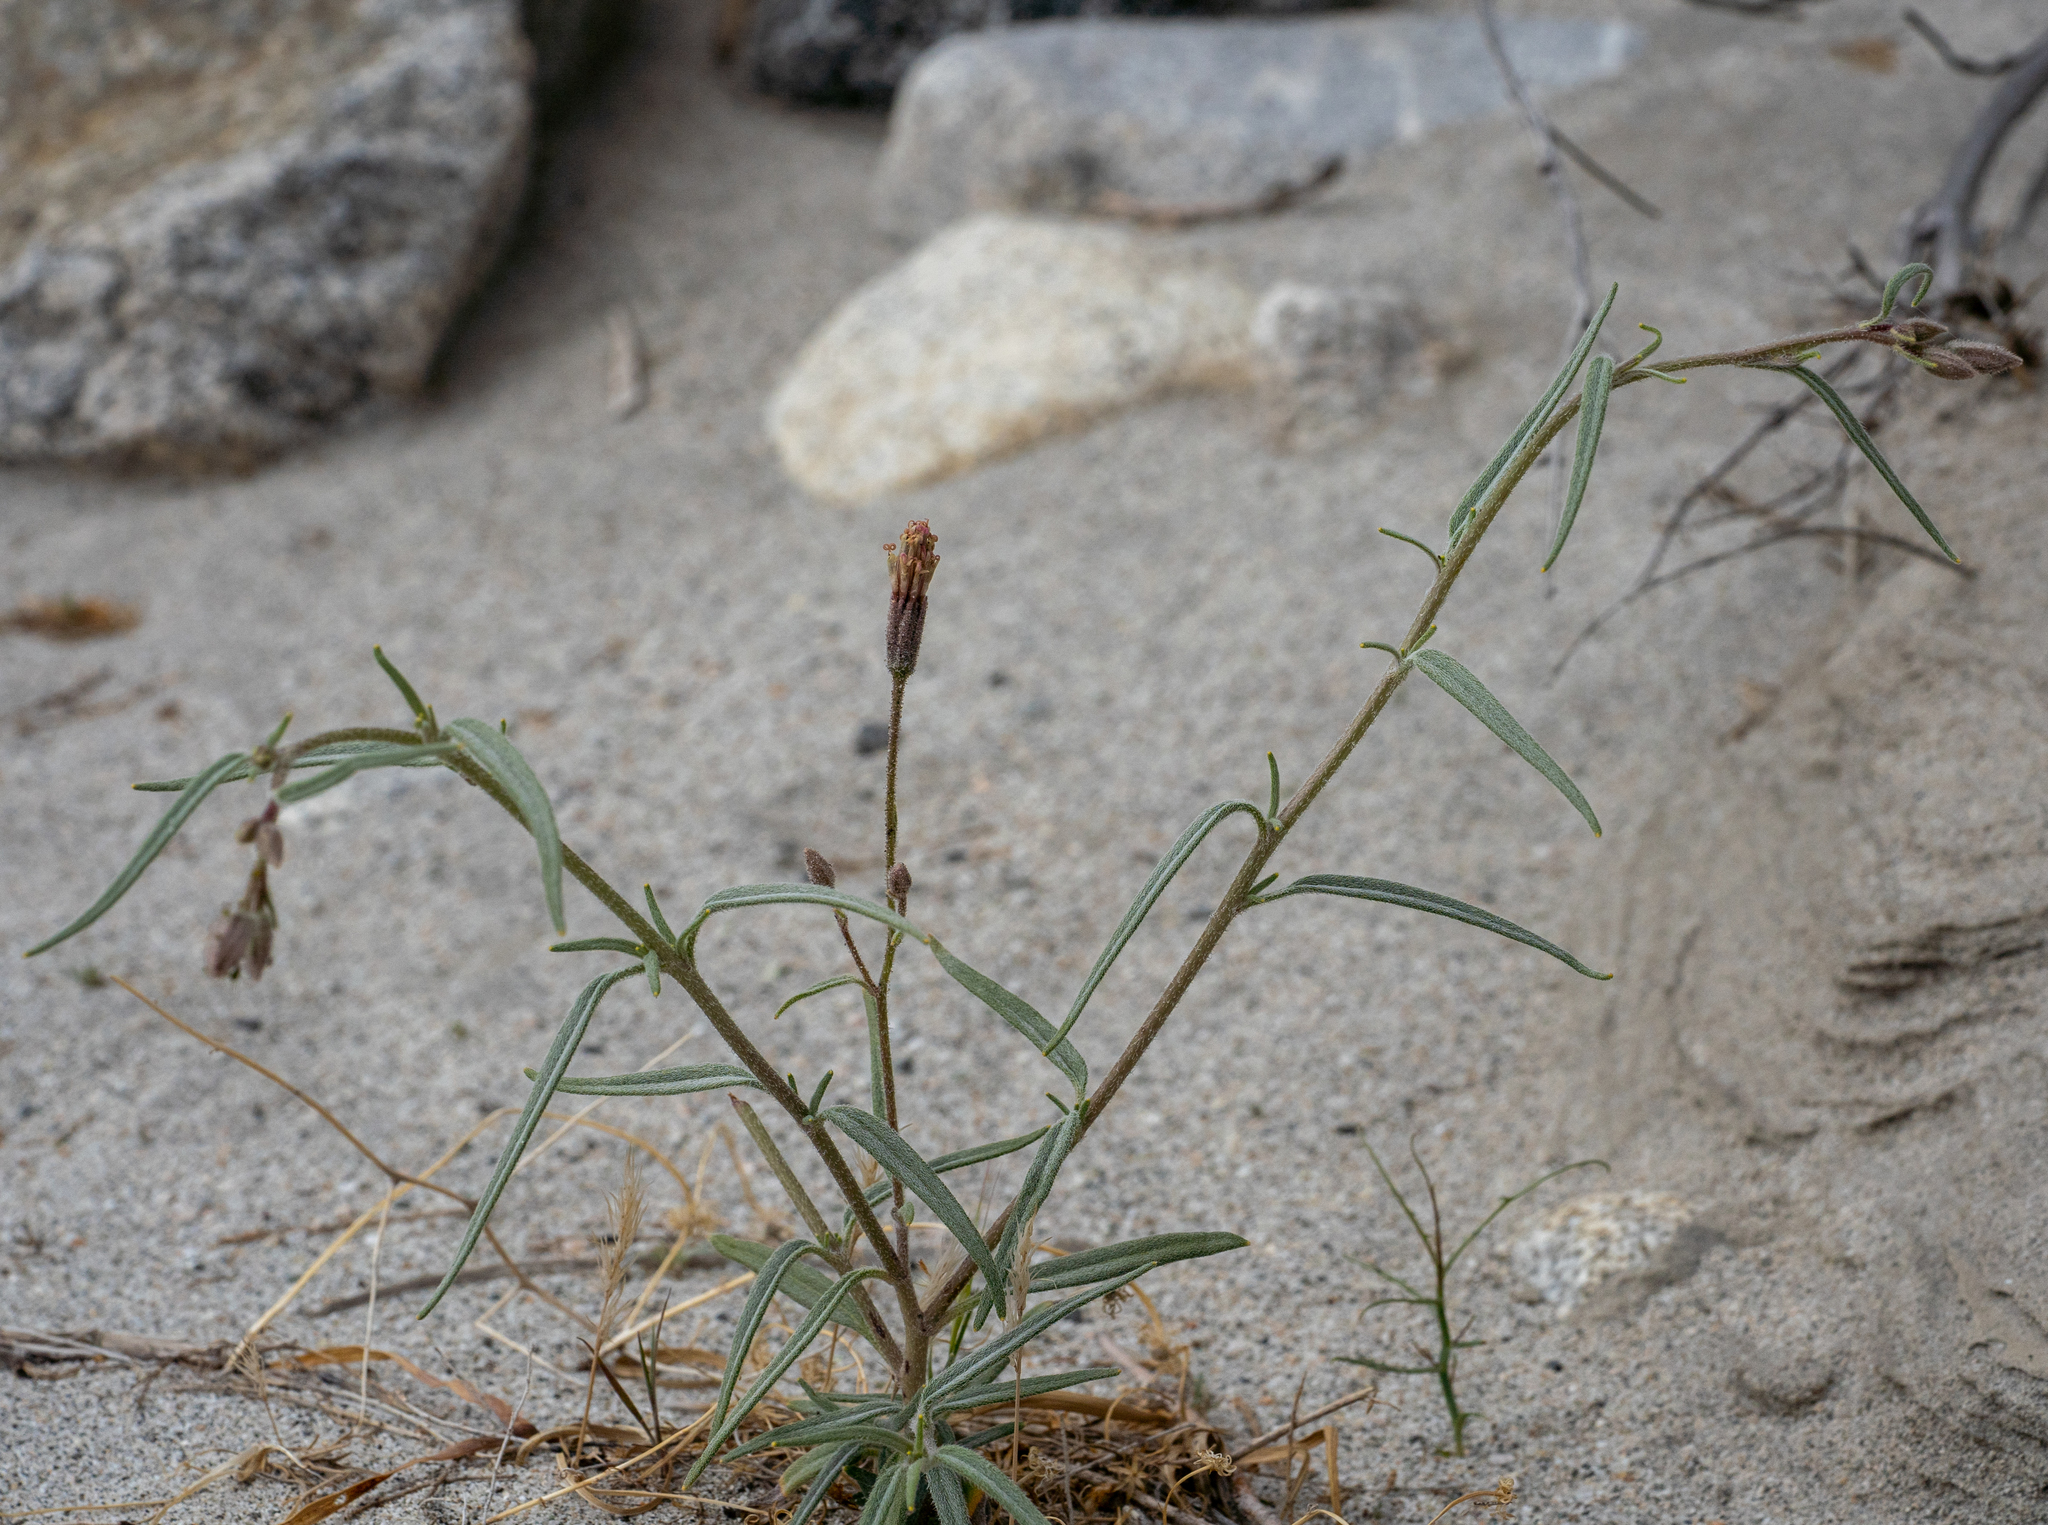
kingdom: Plantae
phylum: Tracheophyta
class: Magnoliopsida
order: Asterales
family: Asteraceae
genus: Palafoxia
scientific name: Palafoxia arida
